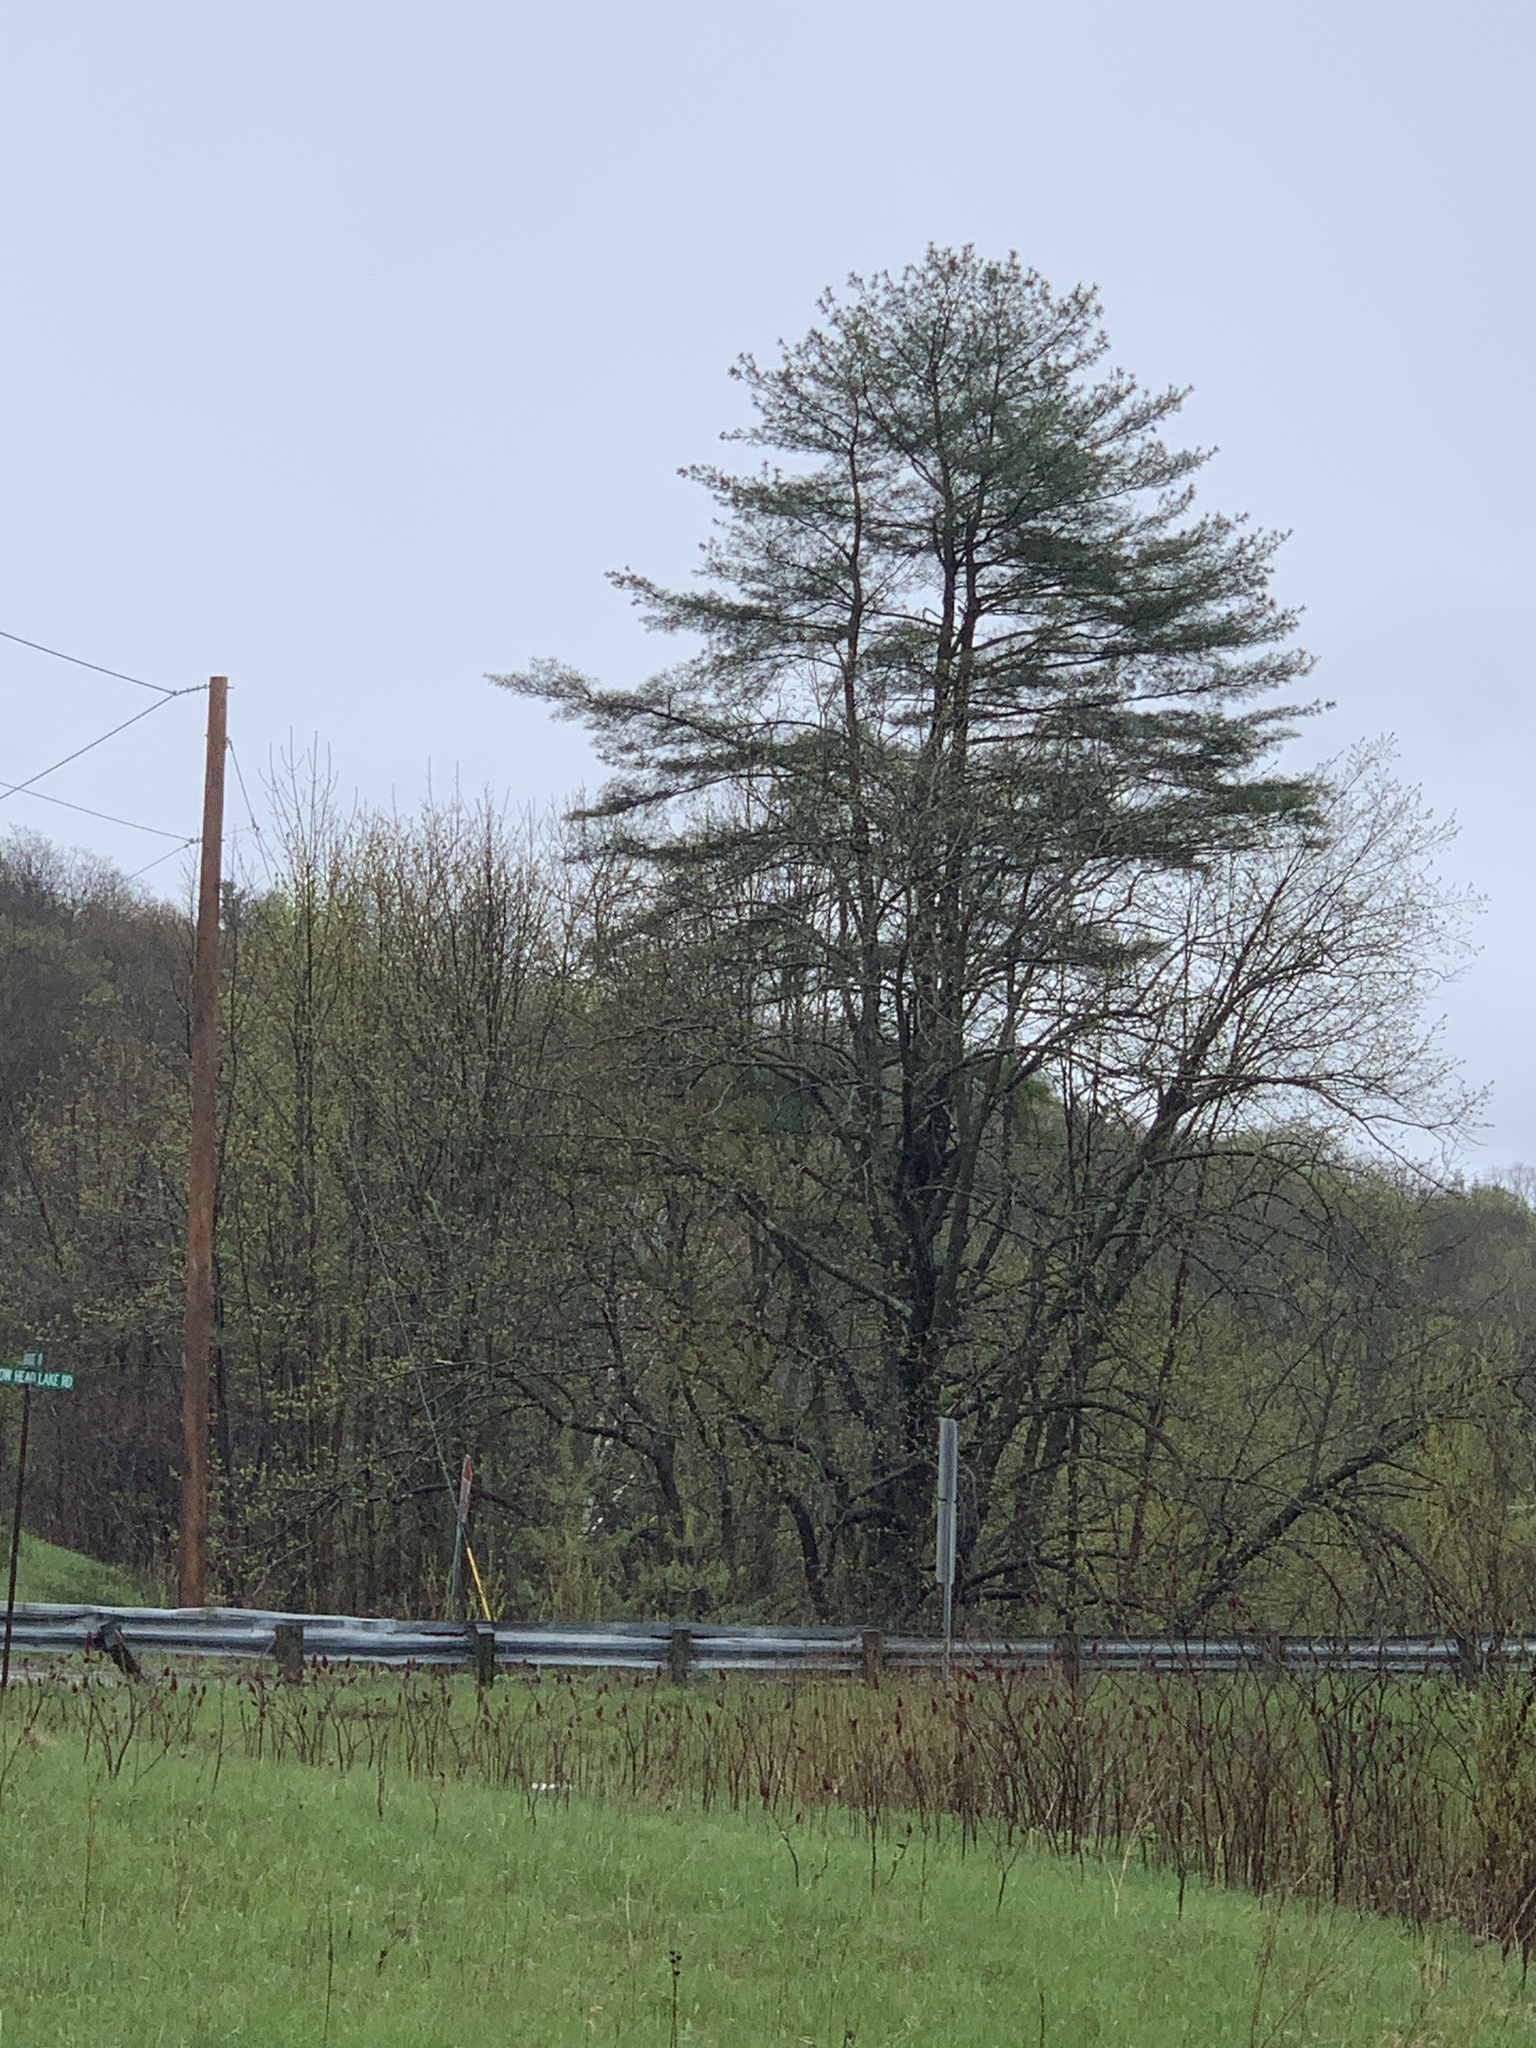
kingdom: Plantae
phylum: Tracheophyta
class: Pinopsida
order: Pinales
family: Pinaceae
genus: Pinus
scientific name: Pinus strobus
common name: Weymouth pine
